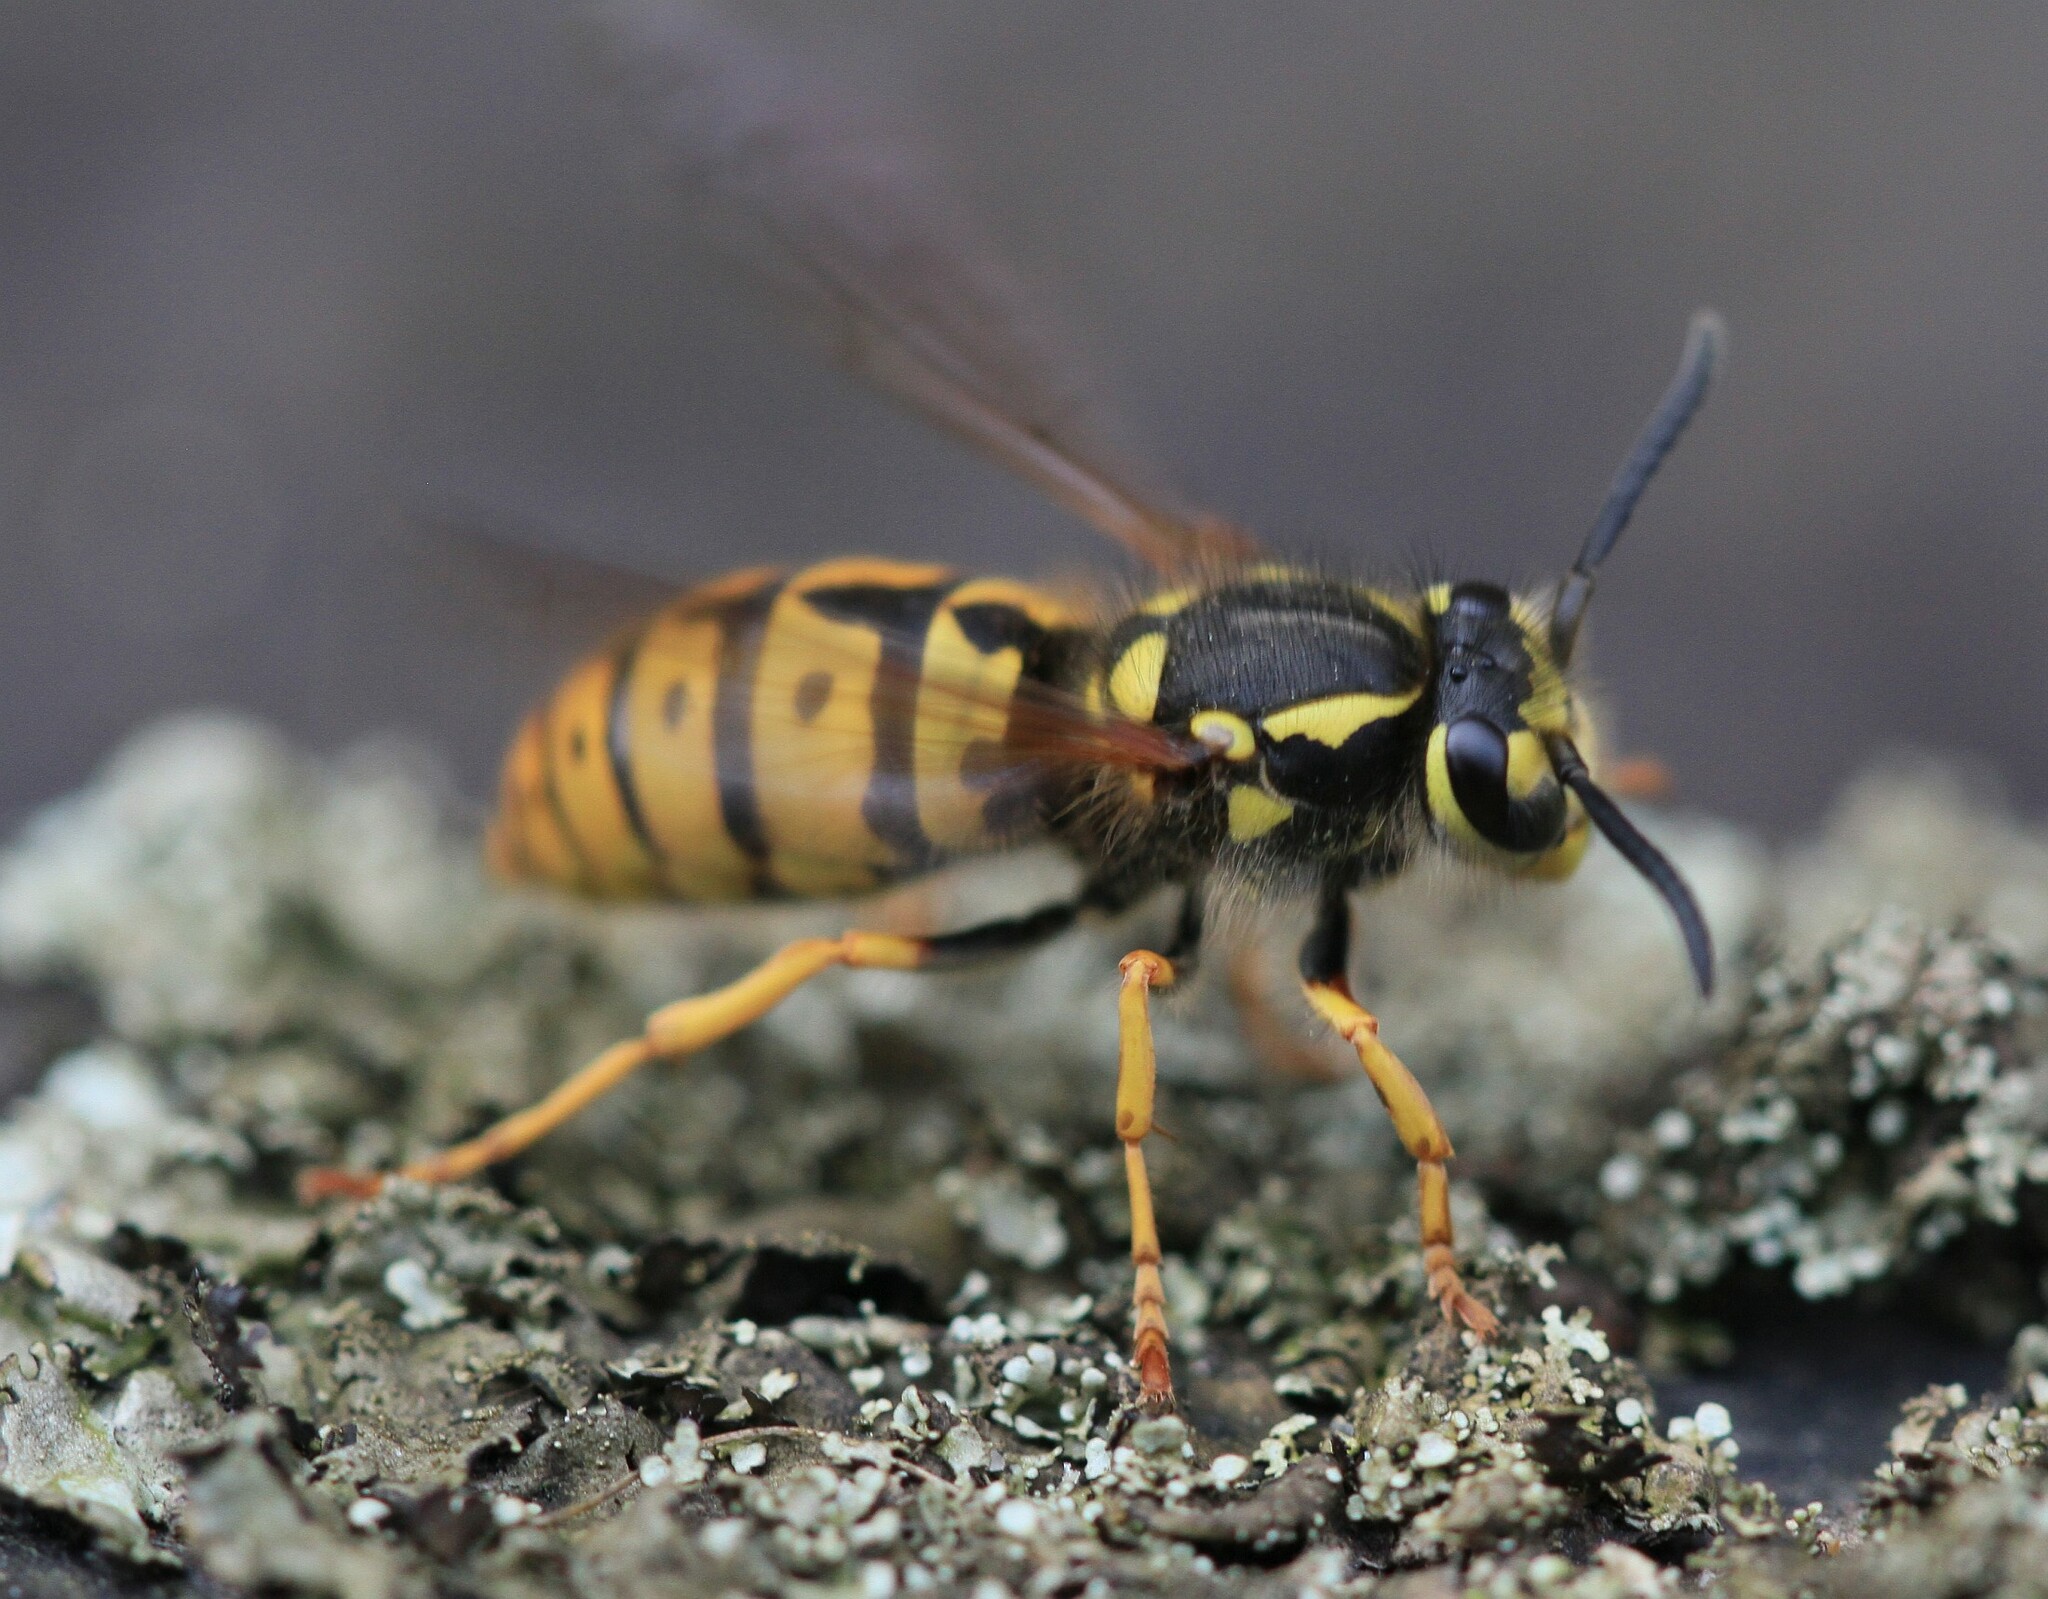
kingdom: Animalia
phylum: Arthropoda
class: Insecta
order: Hymenoptera
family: Vespidae
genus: Vespula
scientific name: Vespula germanica
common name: German wasp
